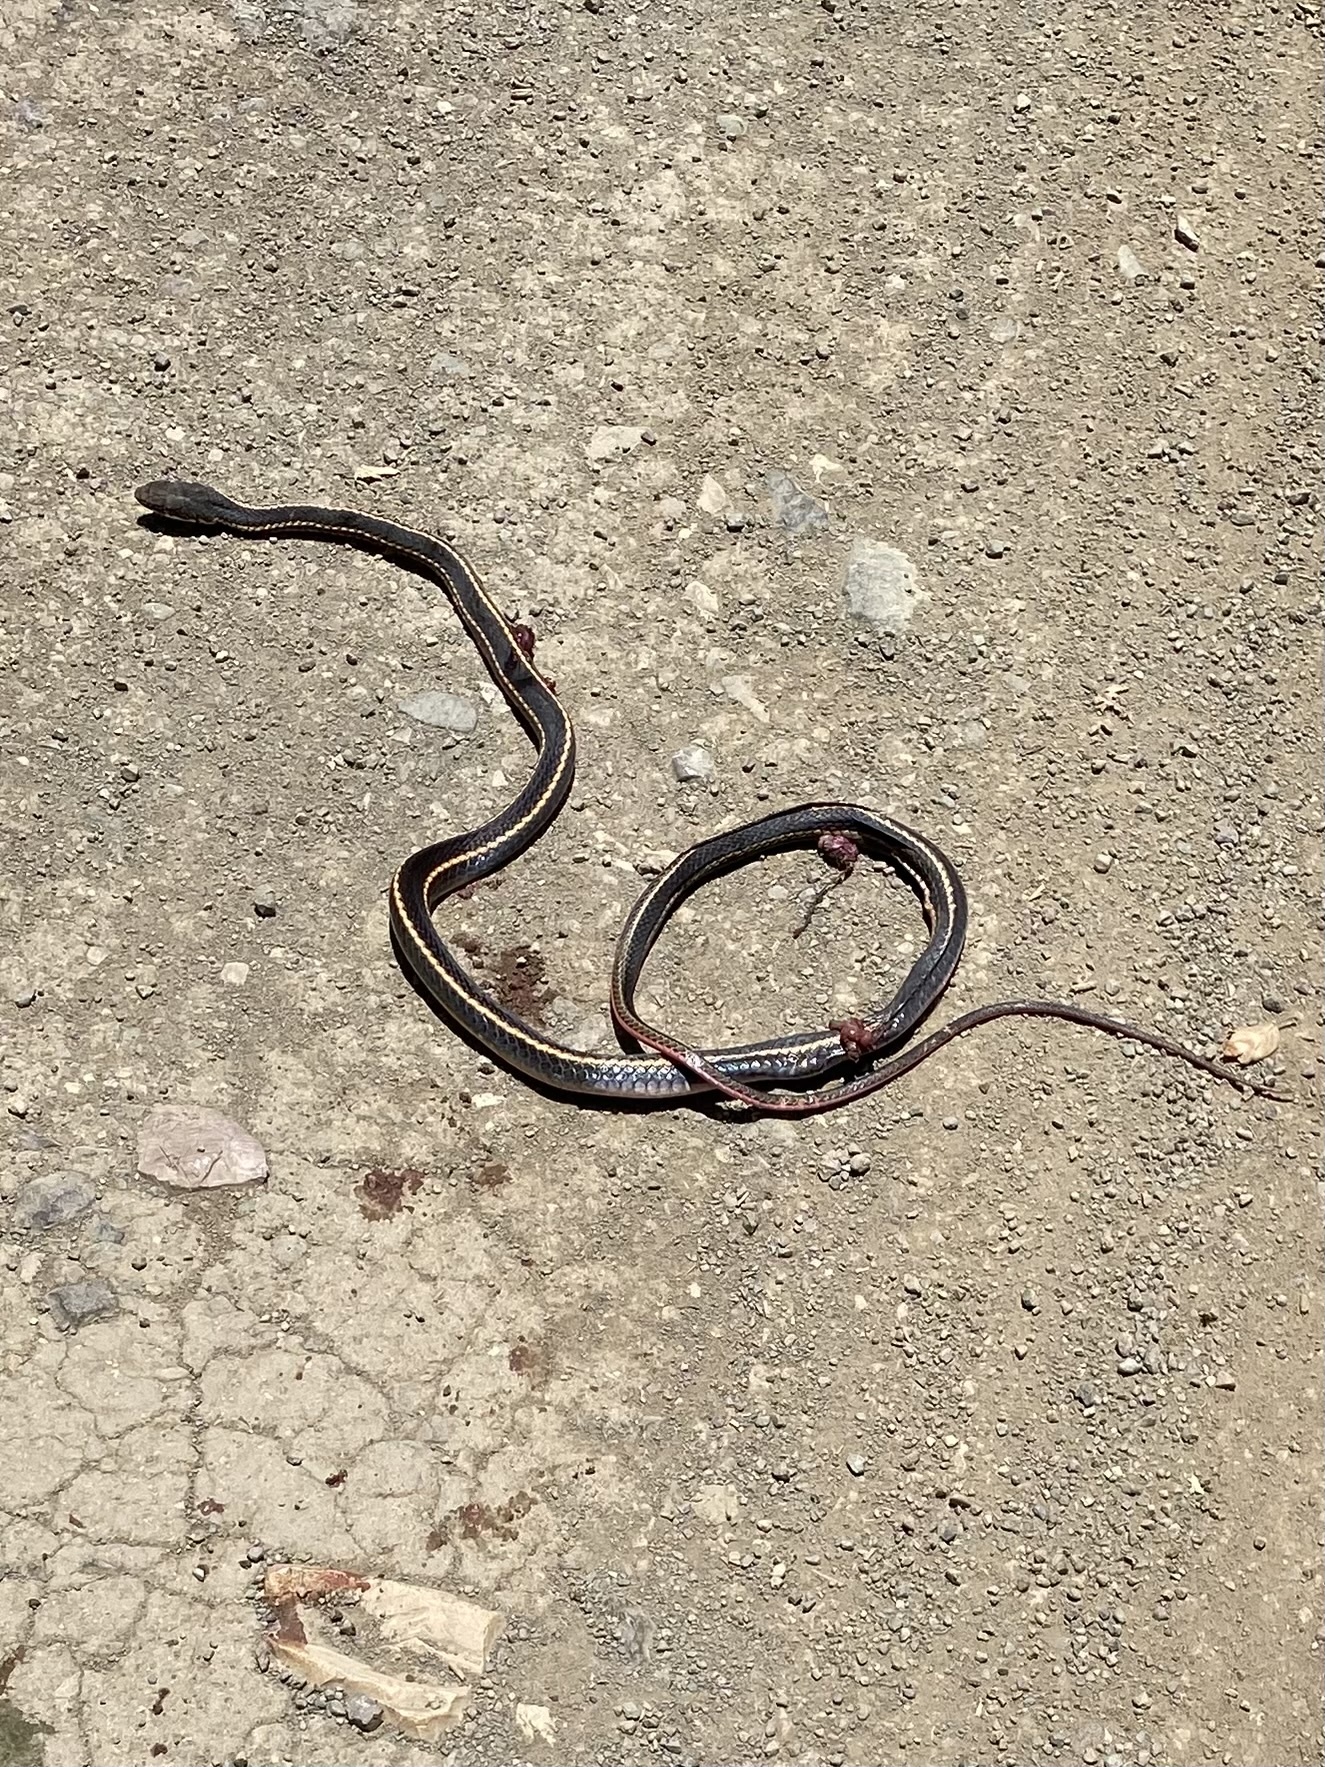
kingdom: Animalia
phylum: Chordata
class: Squamata
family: Colubridae
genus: Masticophis
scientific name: Masticophis lateralis
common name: Striped racer
